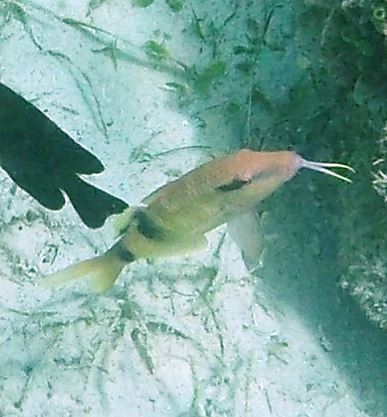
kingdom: Animalia
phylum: Chordata
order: Perciformes
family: Mullidae
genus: Parupeneus
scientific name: Parupeneus multifasciatus
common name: Manybar goatfish
